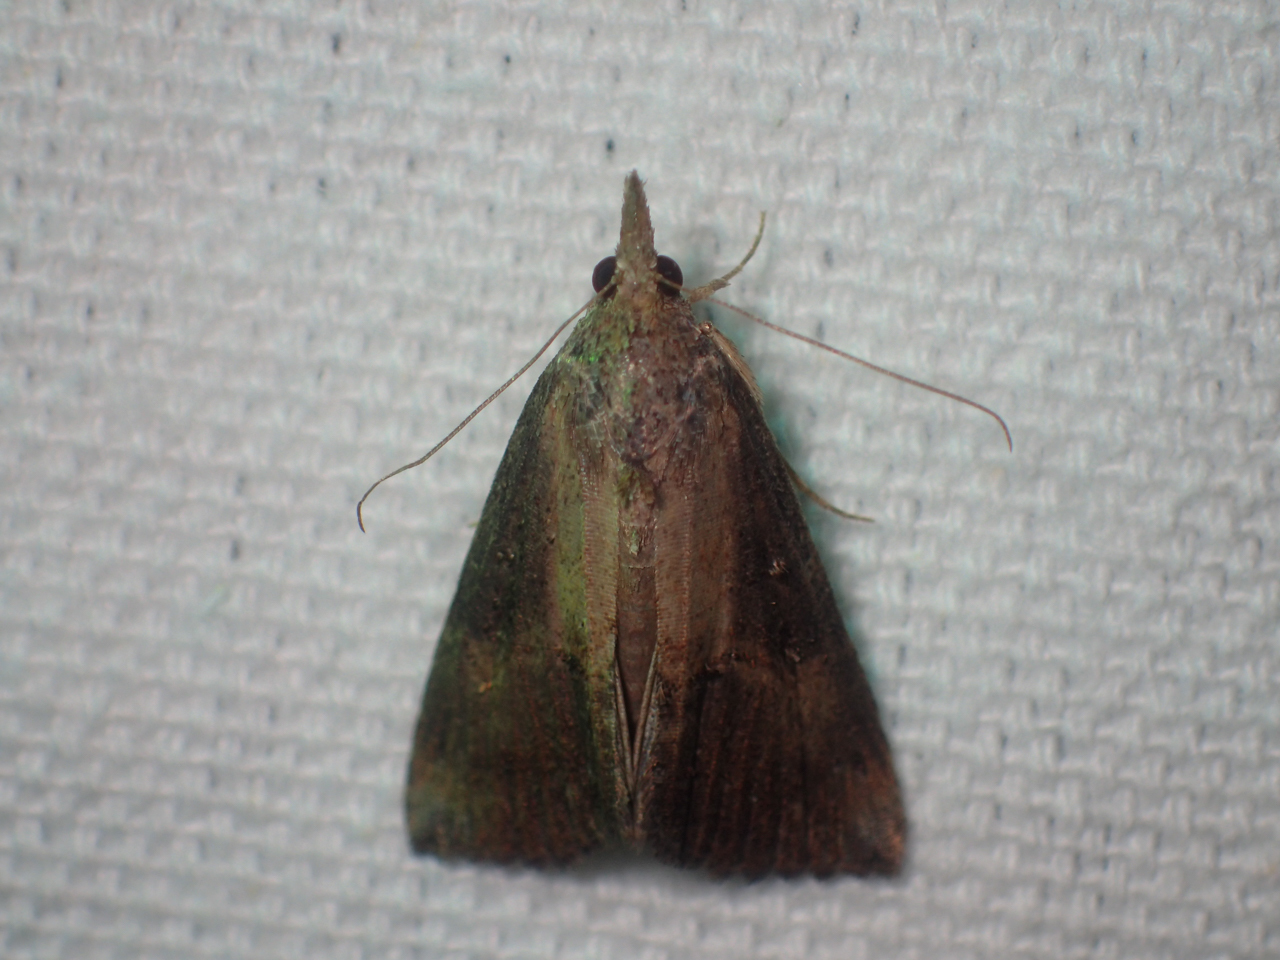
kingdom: Animalia
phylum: Arthropoda
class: Insecta
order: Lepidoptera
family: Erebidae
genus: Hypena
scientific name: Hypena scabra
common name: Green cloverworm
